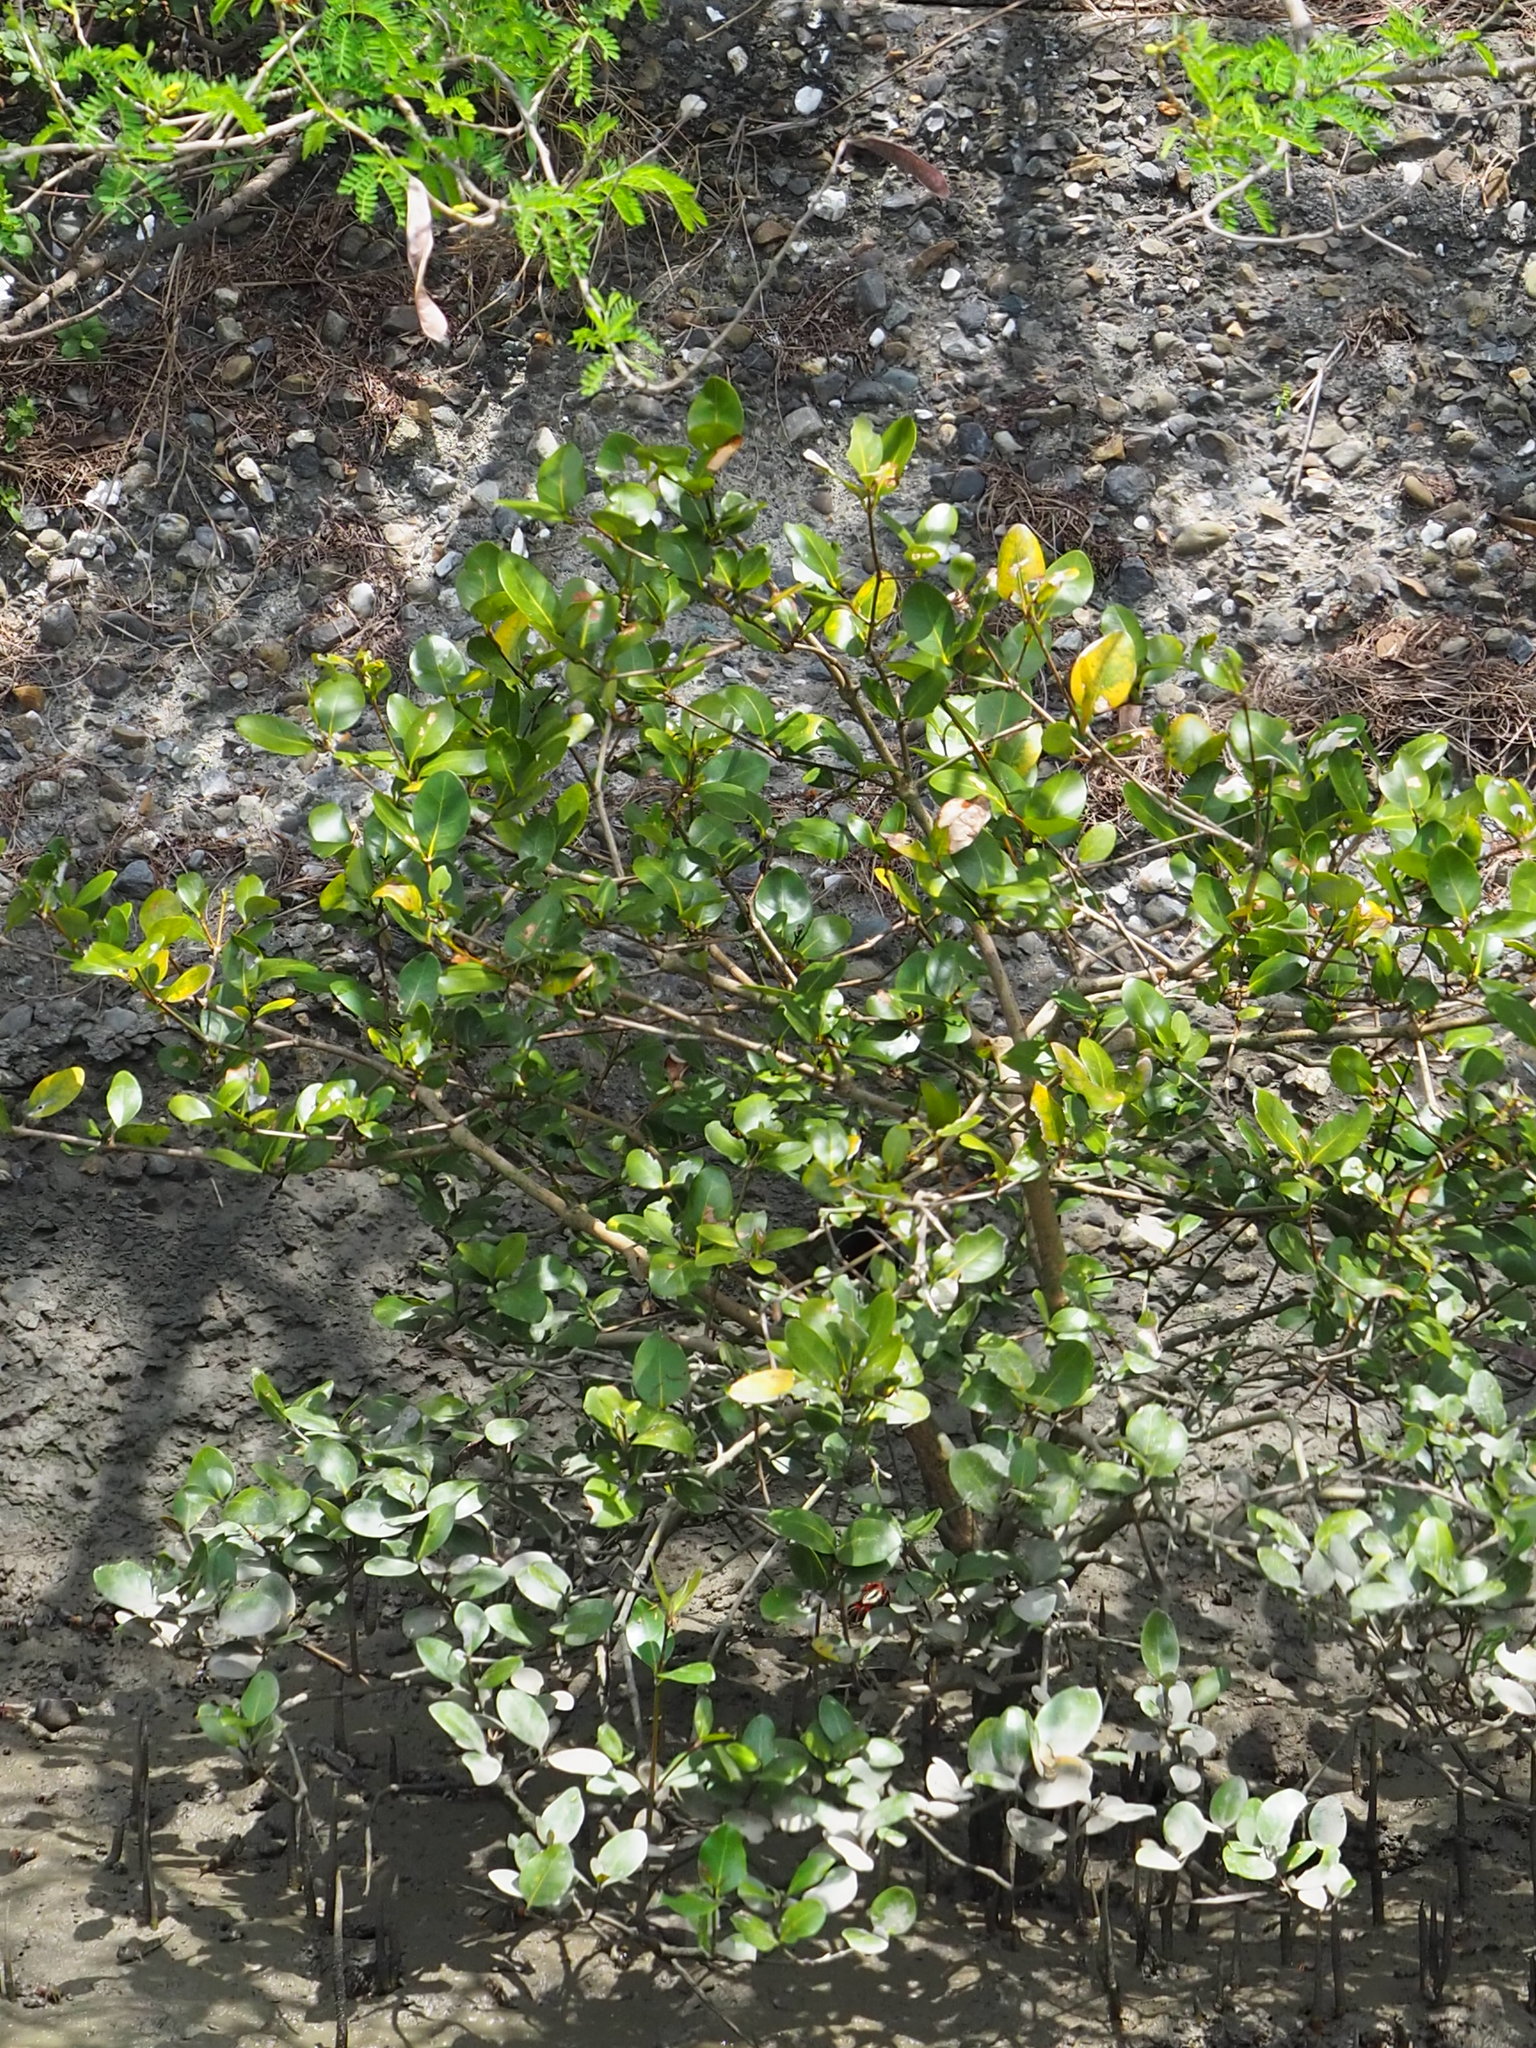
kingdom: Plantae
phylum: Tracheophyta
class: Magnoliopsida
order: Lamiales
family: Acanthaceae
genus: Avicennia
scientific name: Avicennia marina
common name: Gray mangrove
